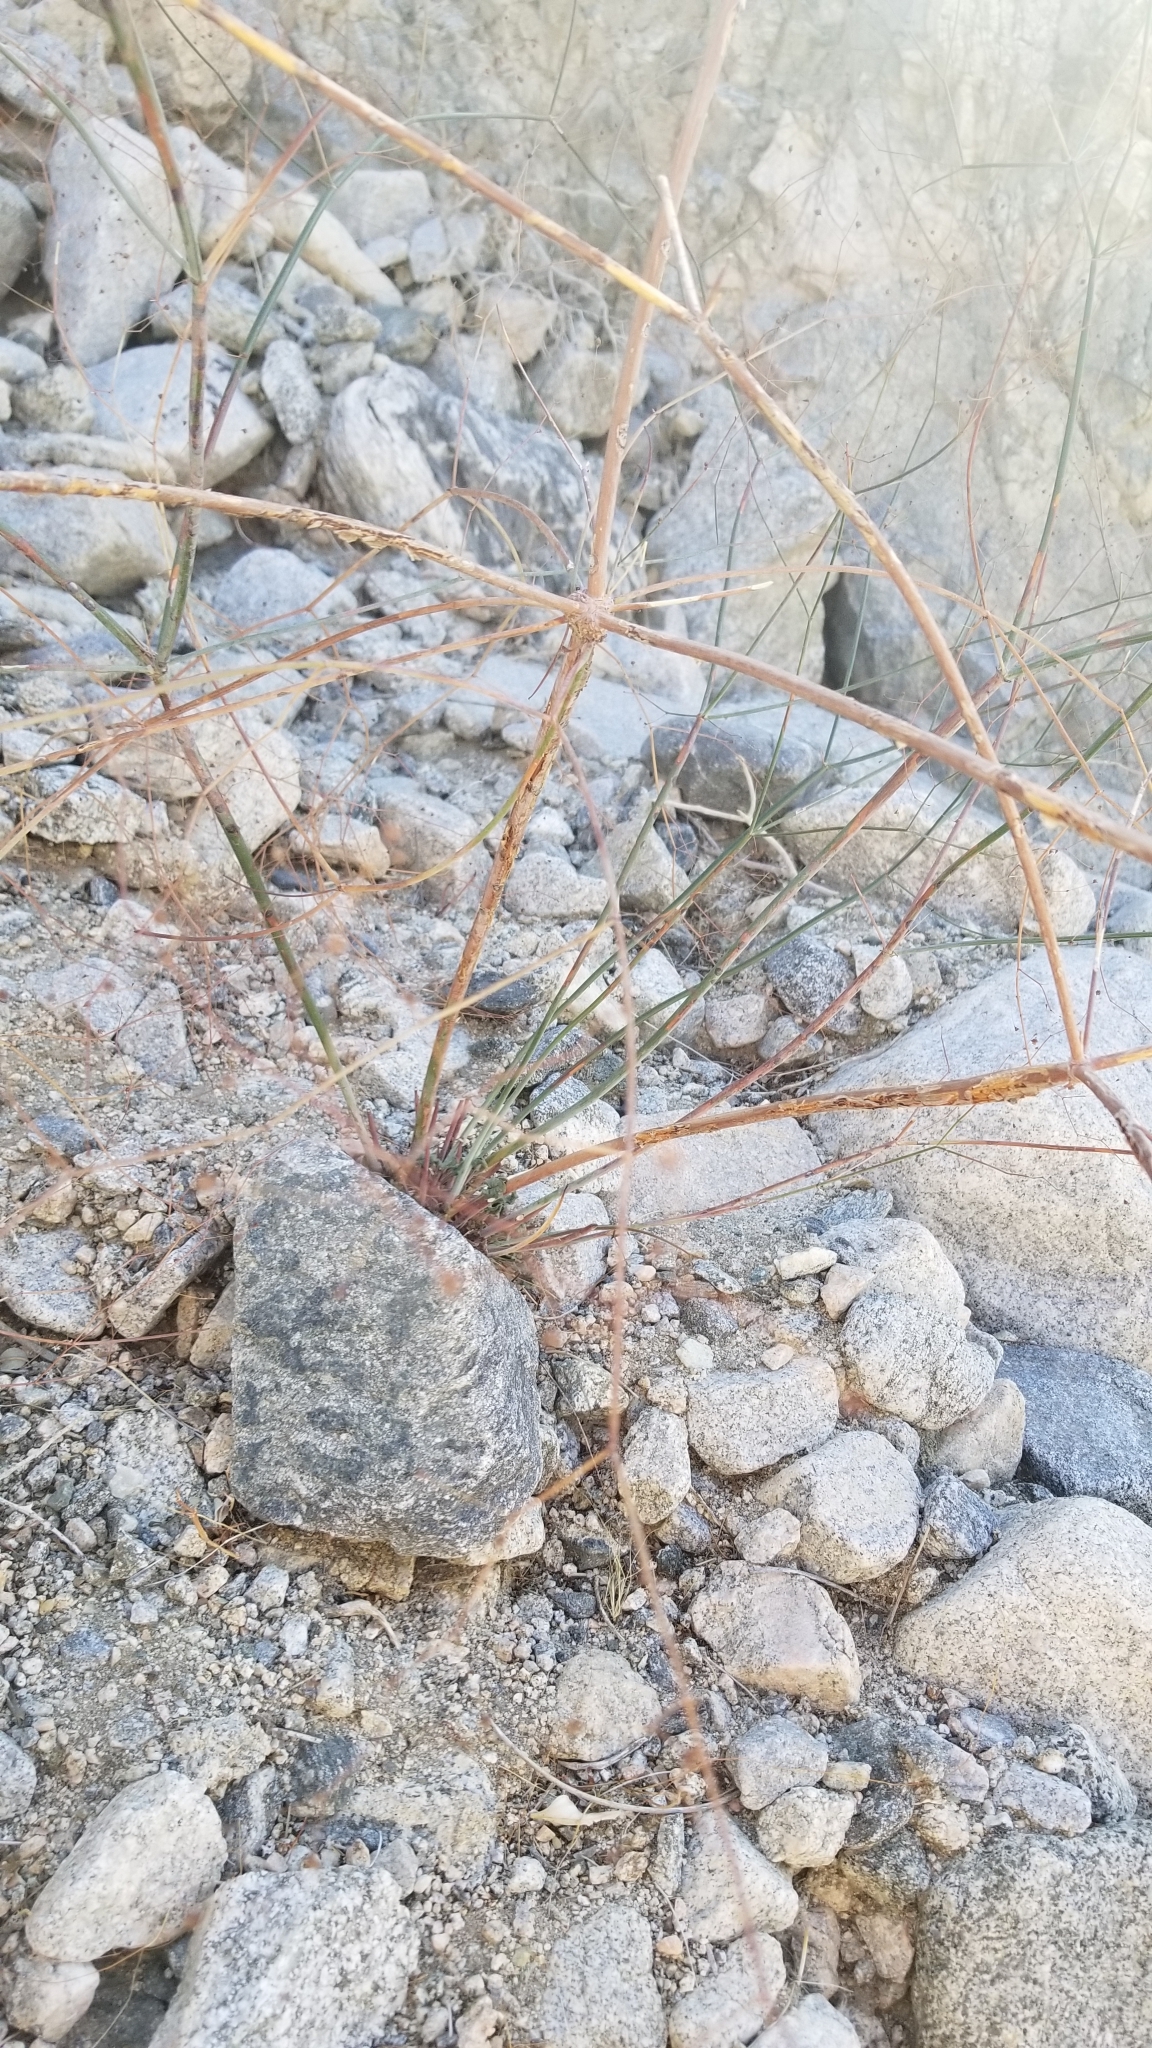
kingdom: Plantae
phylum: Tracheophyta
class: Magnoliopsida
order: Caryophyllales
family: Polygonaceae
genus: Eriogonum
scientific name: Eriogonum inflatum
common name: Desert trumpet
